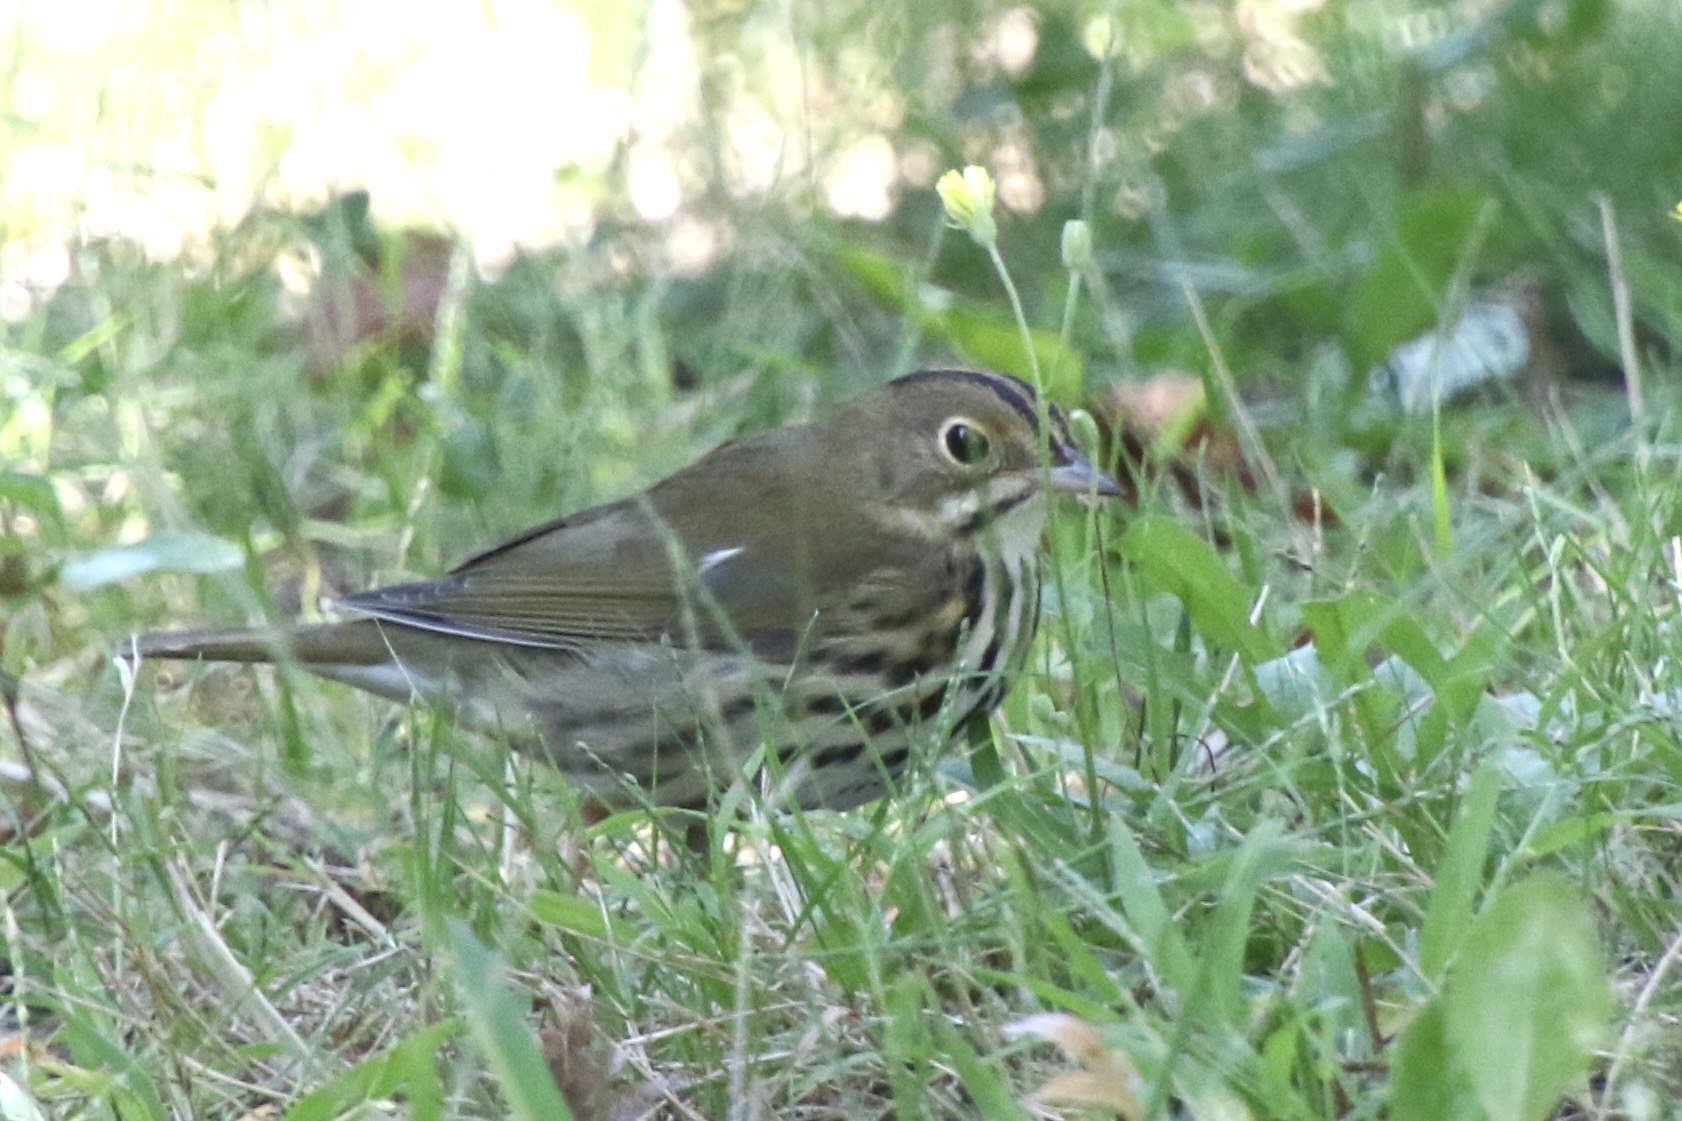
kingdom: Animalia
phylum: Chordata
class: Aves
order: Passeriformes
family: Parulidae
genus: Seiurus
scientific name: Seiurus aurocapilla
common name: Ovenbird
